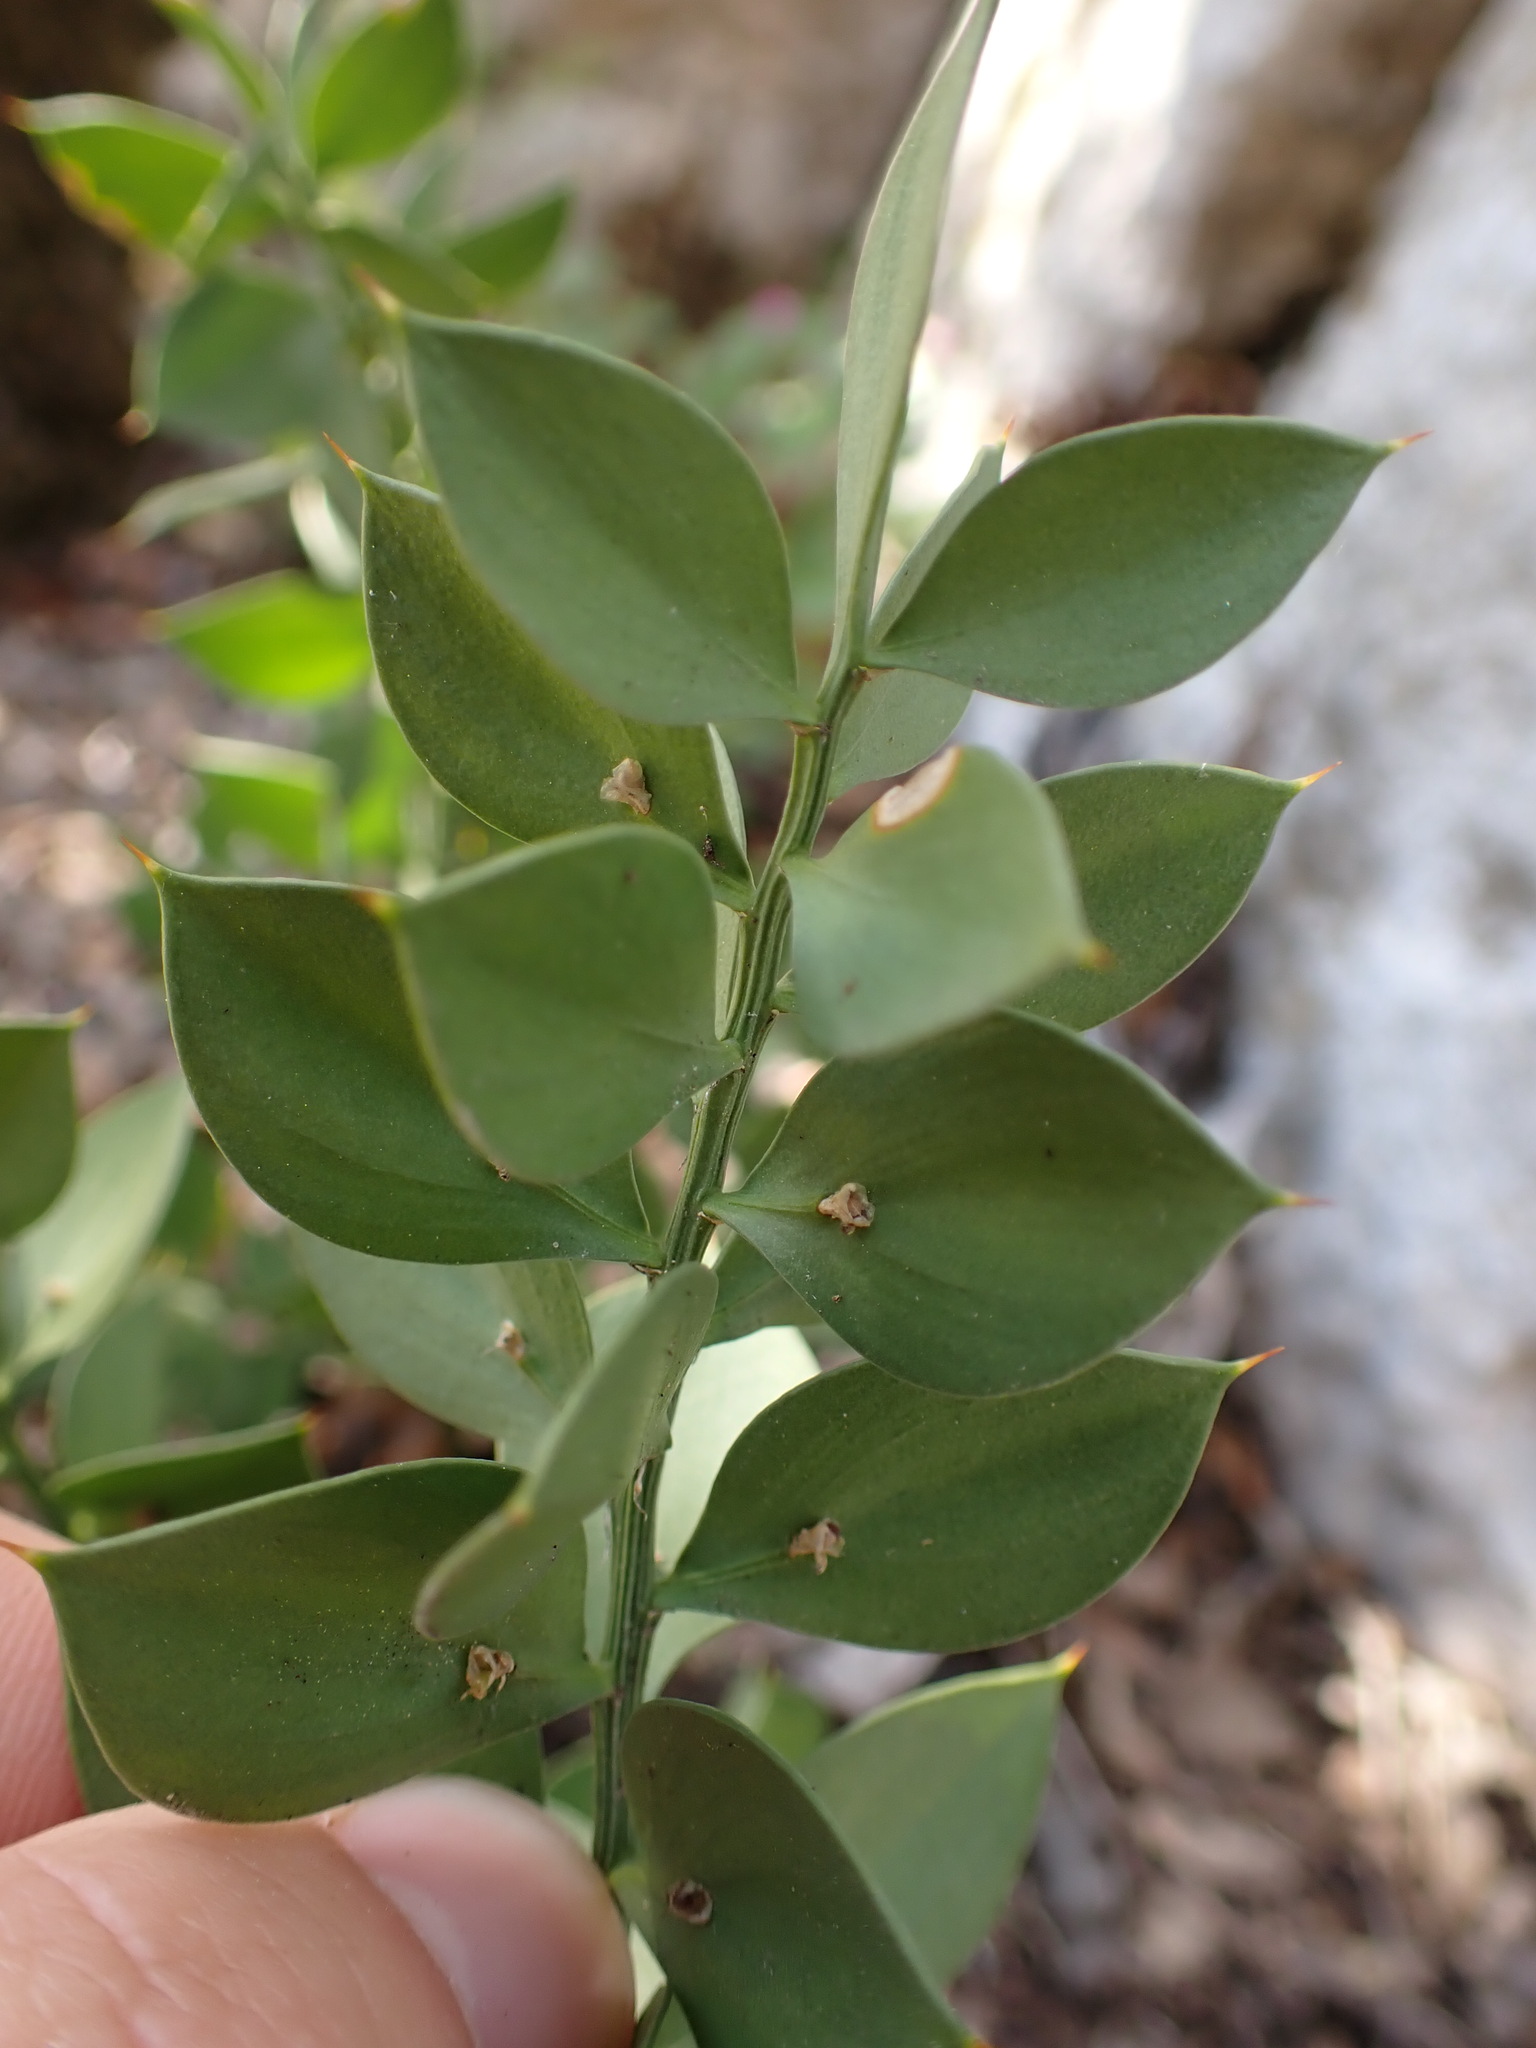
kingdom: Plantae
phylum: Tracheophyta
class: Liliopsida
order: Asparagales
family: Asparagaceae
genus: Ruscus
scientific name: Ruscus aculeatus
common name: Butcher's-broom
